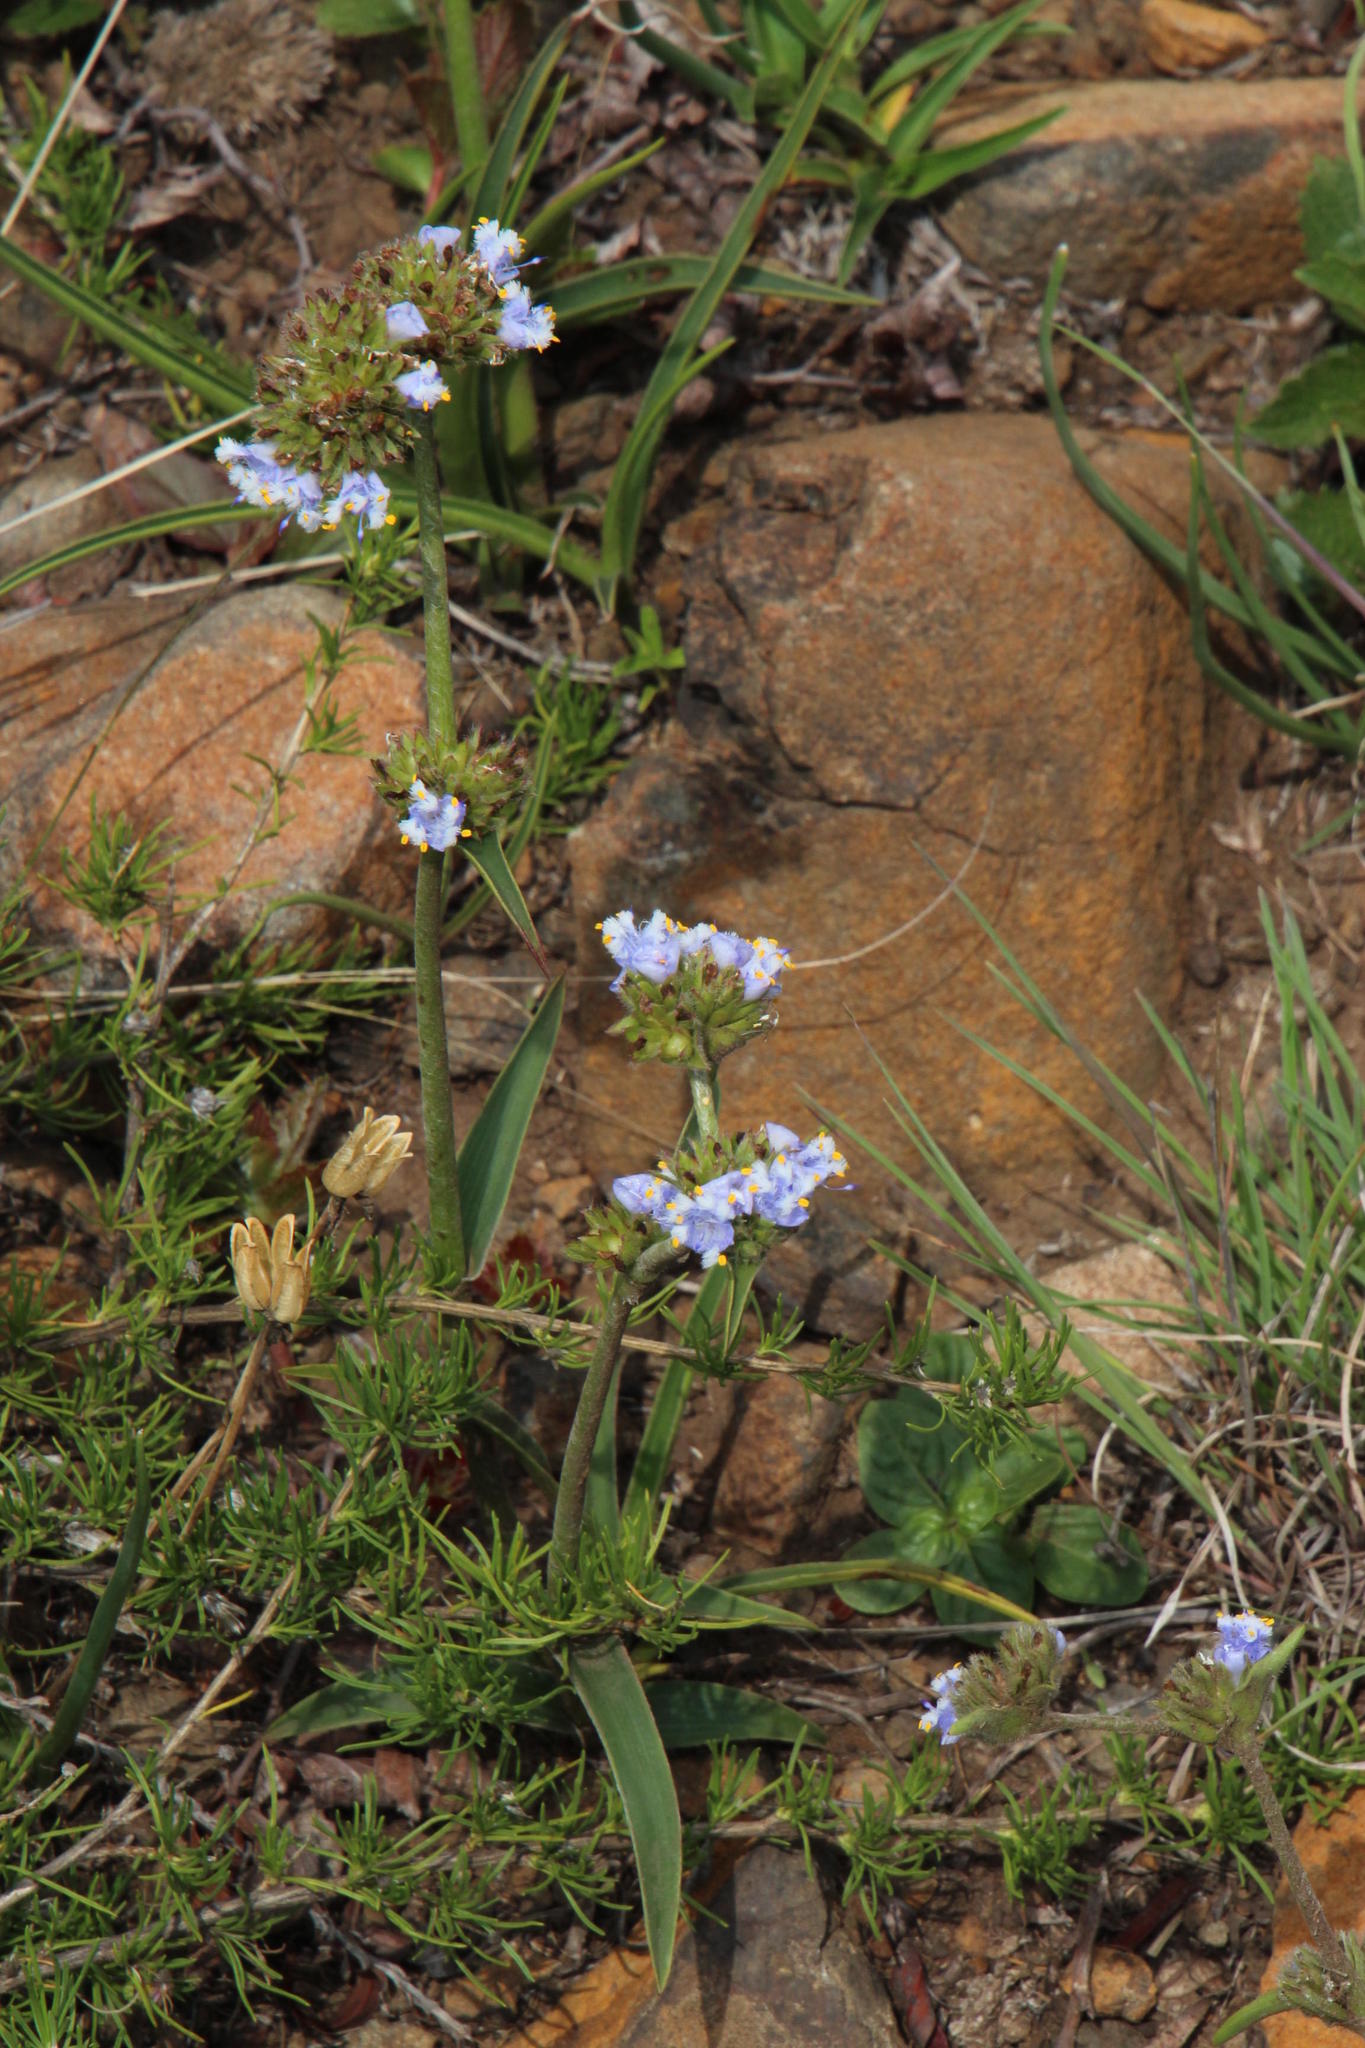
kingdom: Plantae
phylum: Tracheophyta
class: Liliopsida
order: Commelinales
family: Commelinaceae
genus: Cyanotis
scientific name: Cyanotis speciosa
